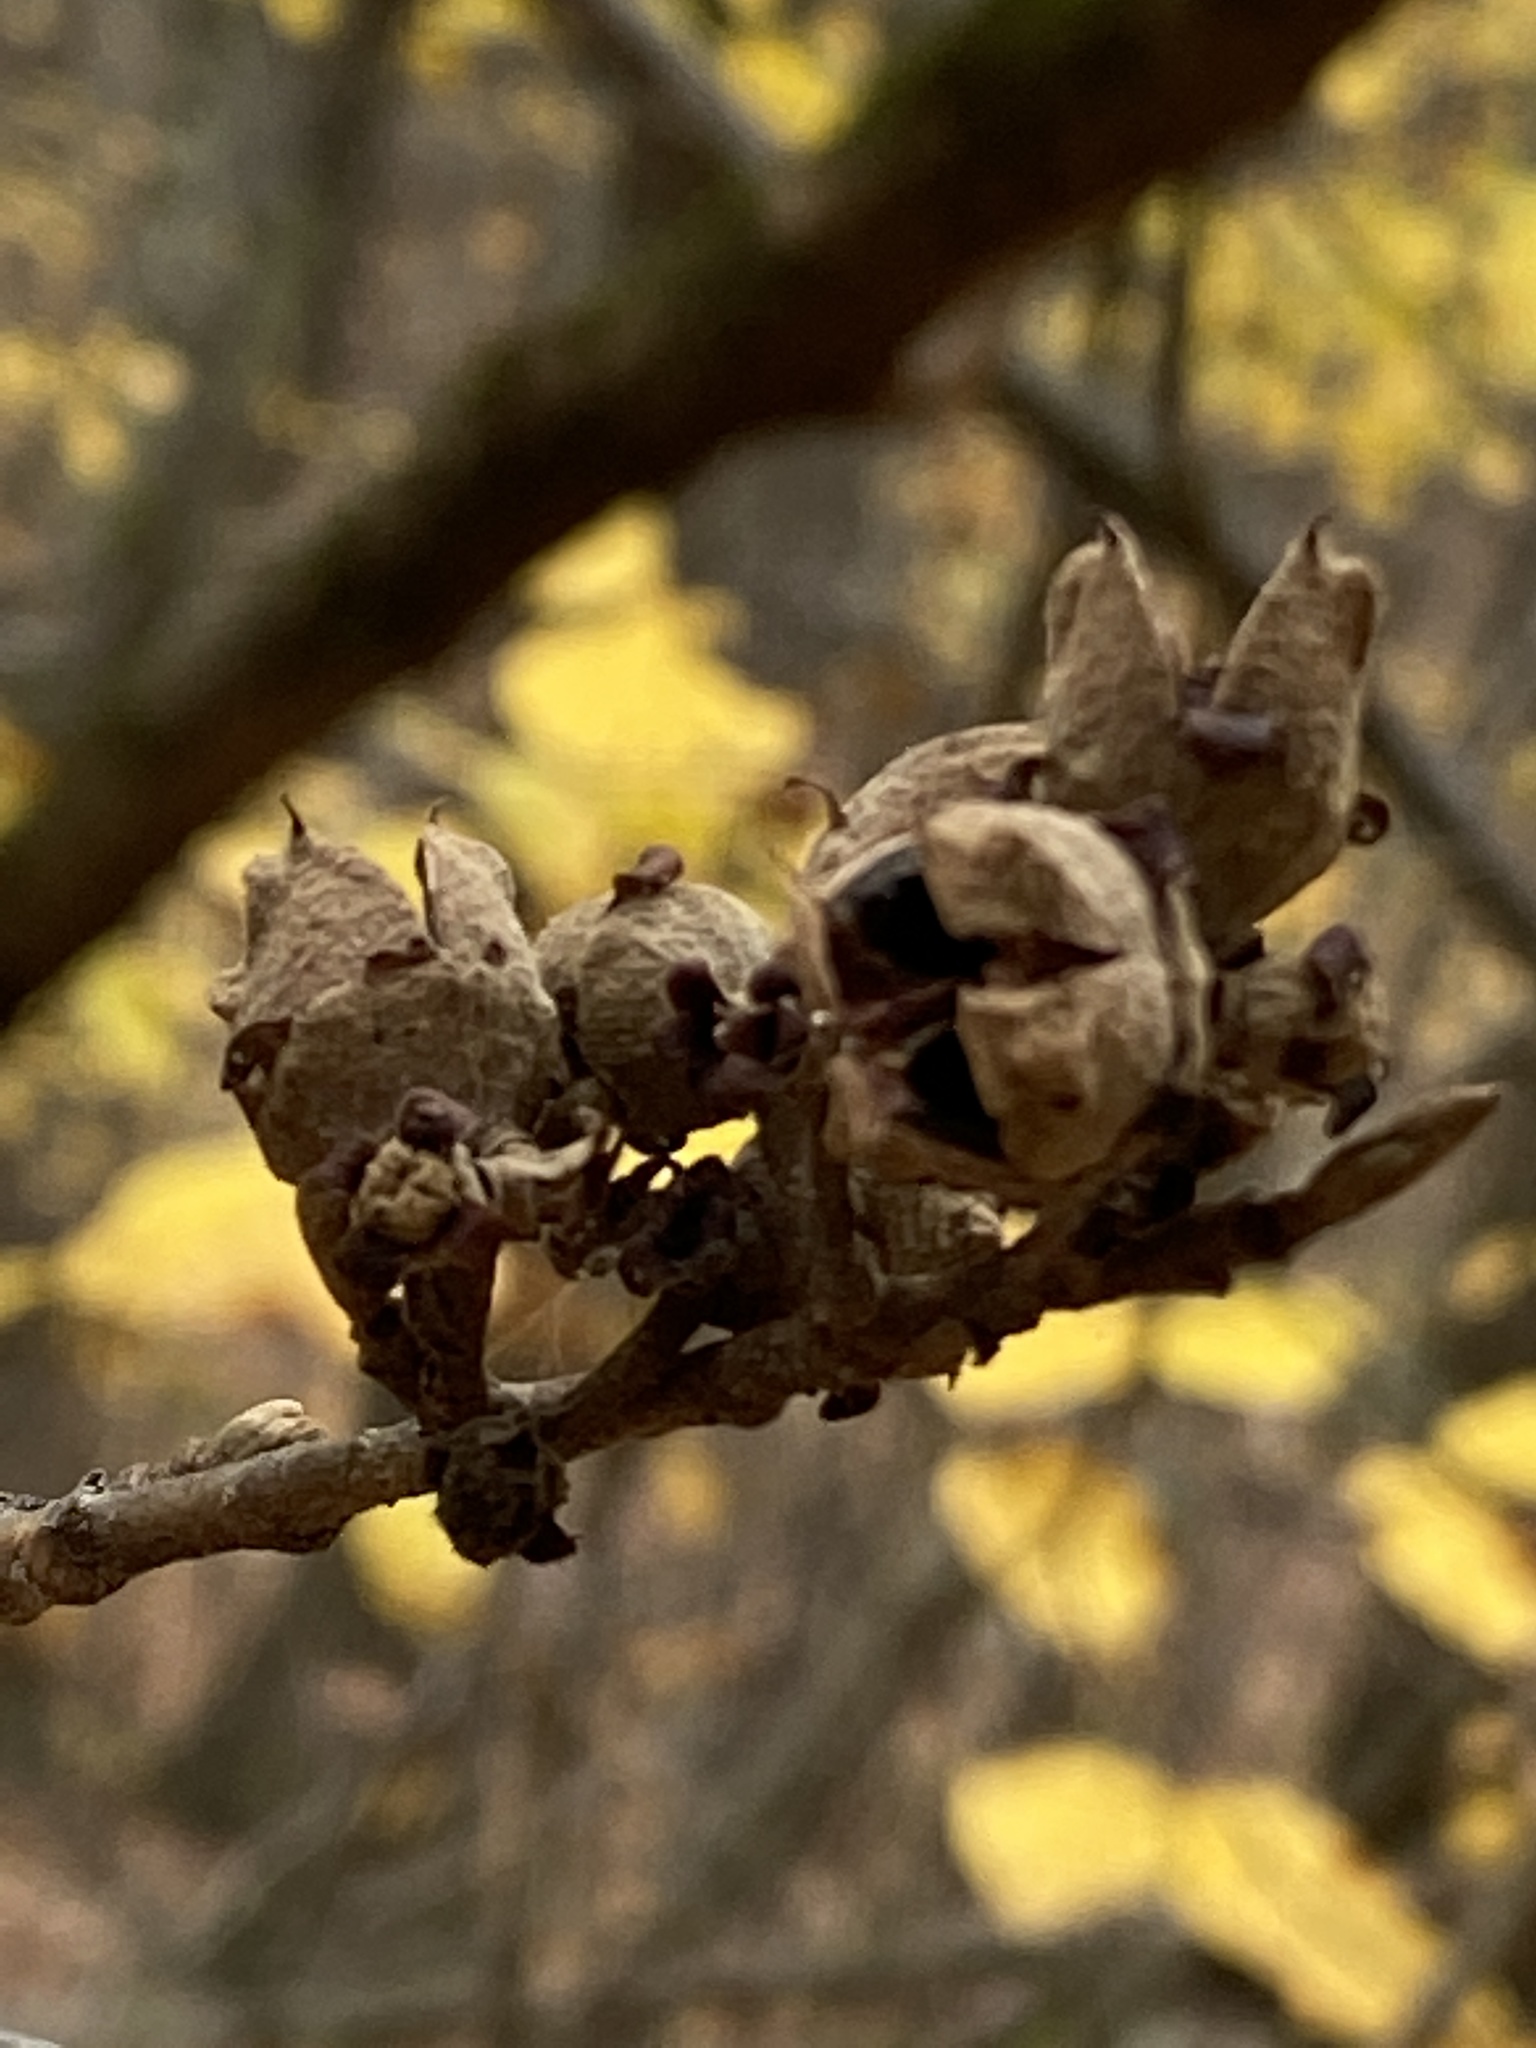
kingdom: Plantae
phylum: Tracheophyta
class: Magnoliopsida
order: Saxifragales
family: Hamamelidaceae
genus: Hamamelis
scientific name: Hamamelis virginiana
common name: Witch-hazel
